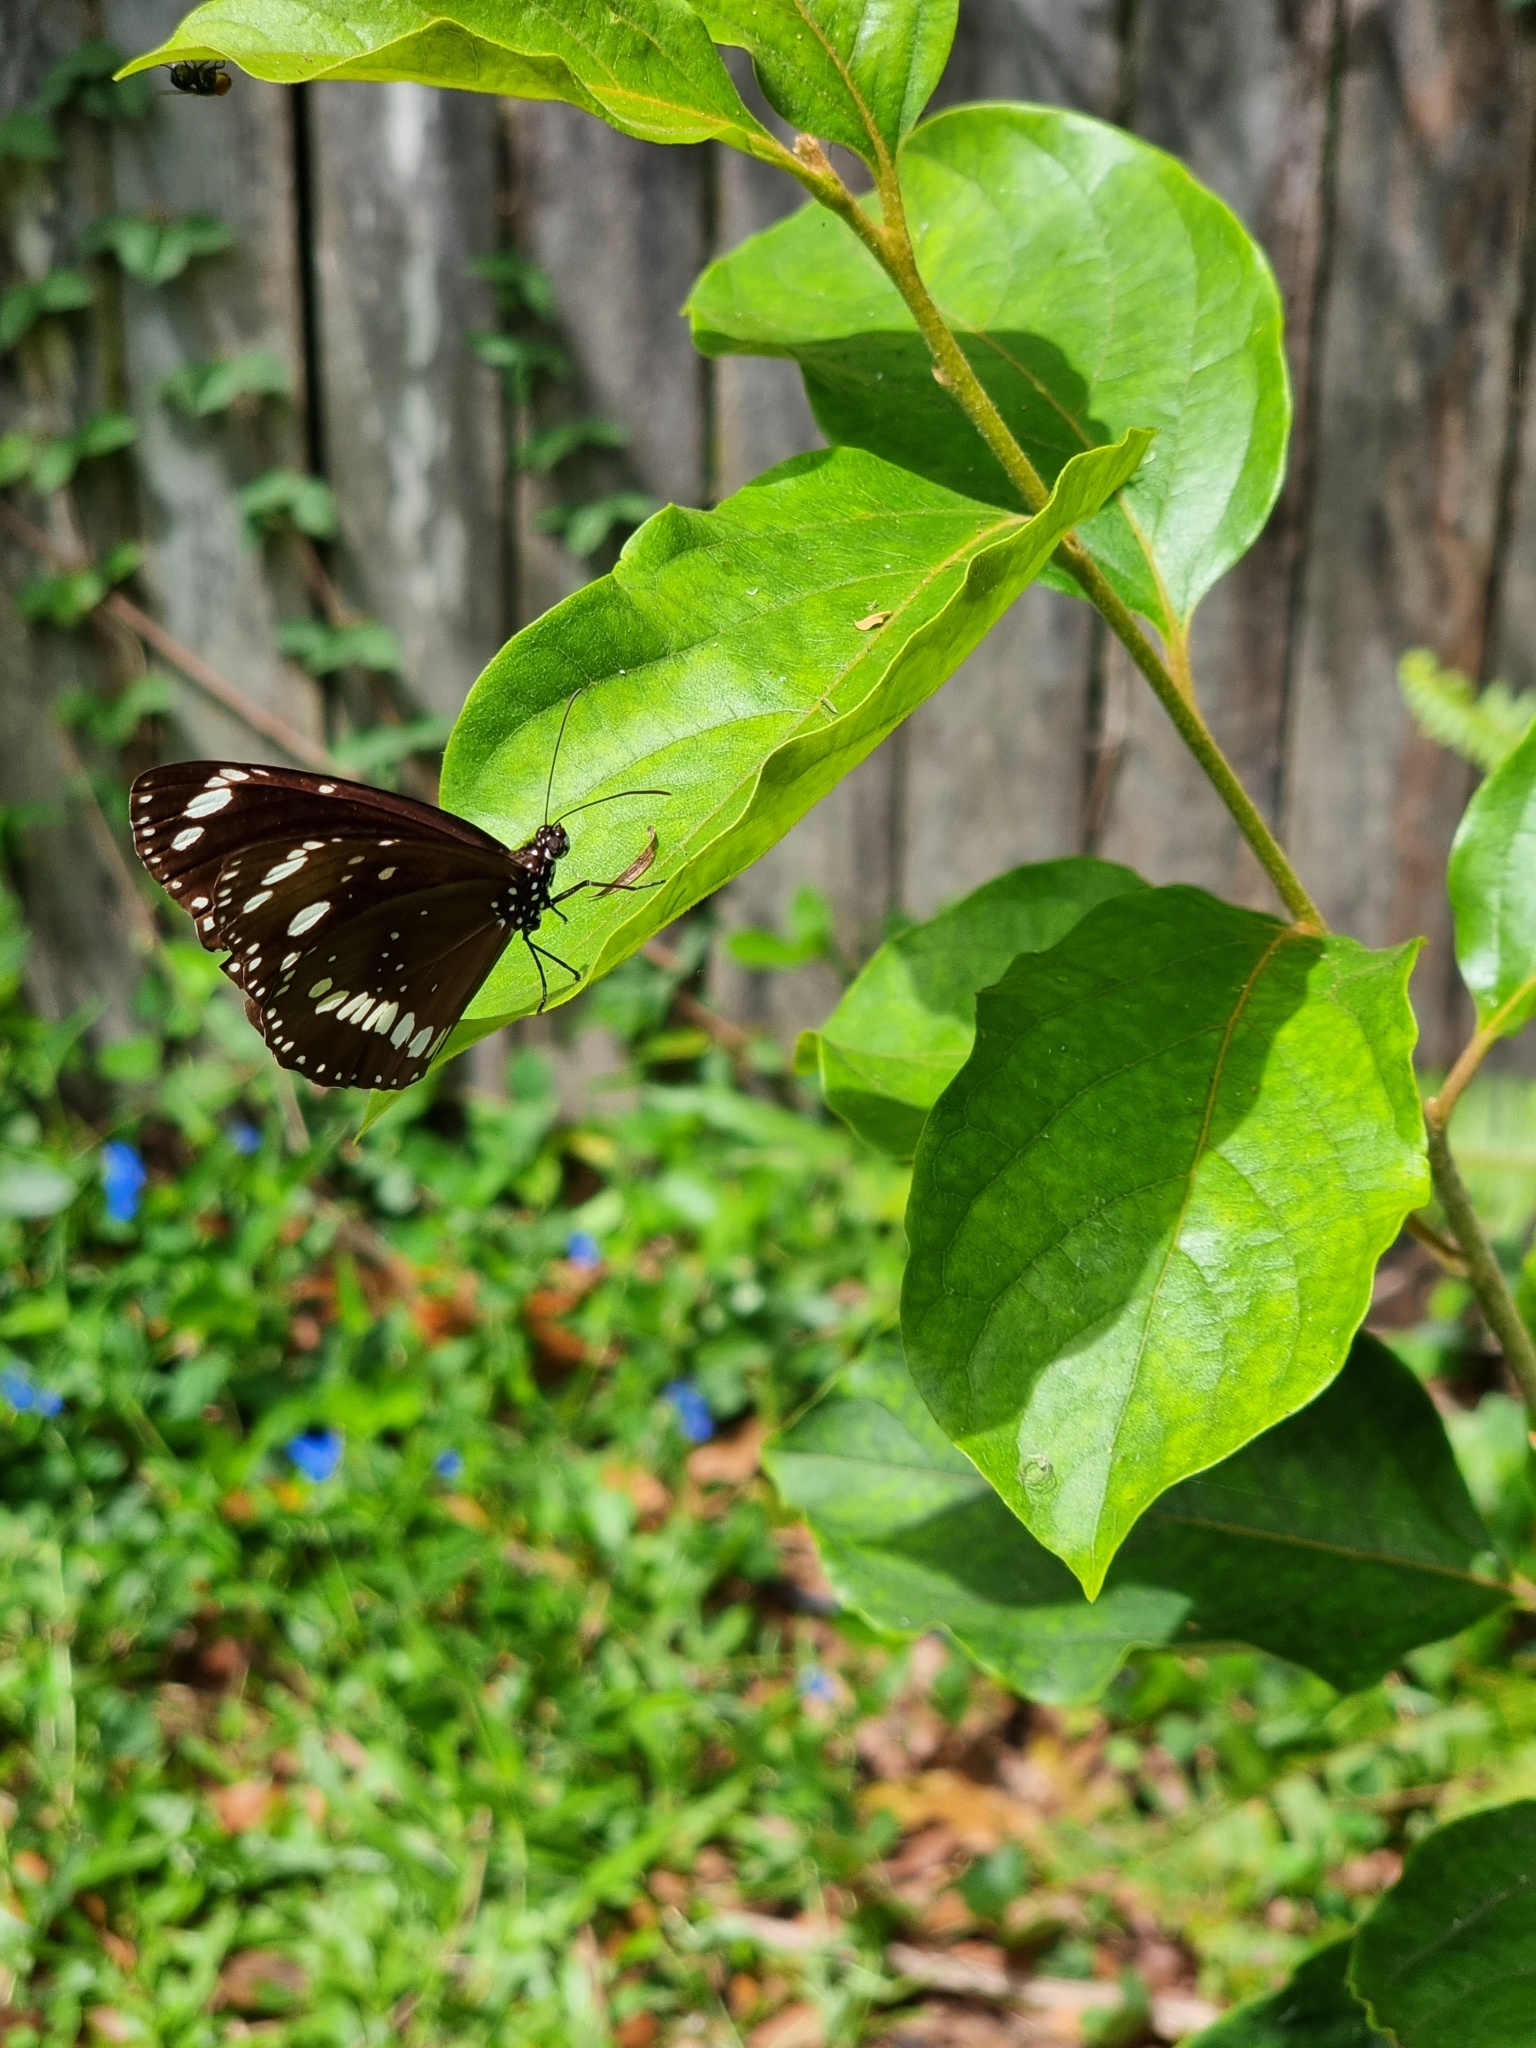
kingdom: Animalia
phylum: Arthropoda
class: Insecta
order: Lepidoptera
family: Nymphalidae
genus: Euploea
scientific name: Euploea core
